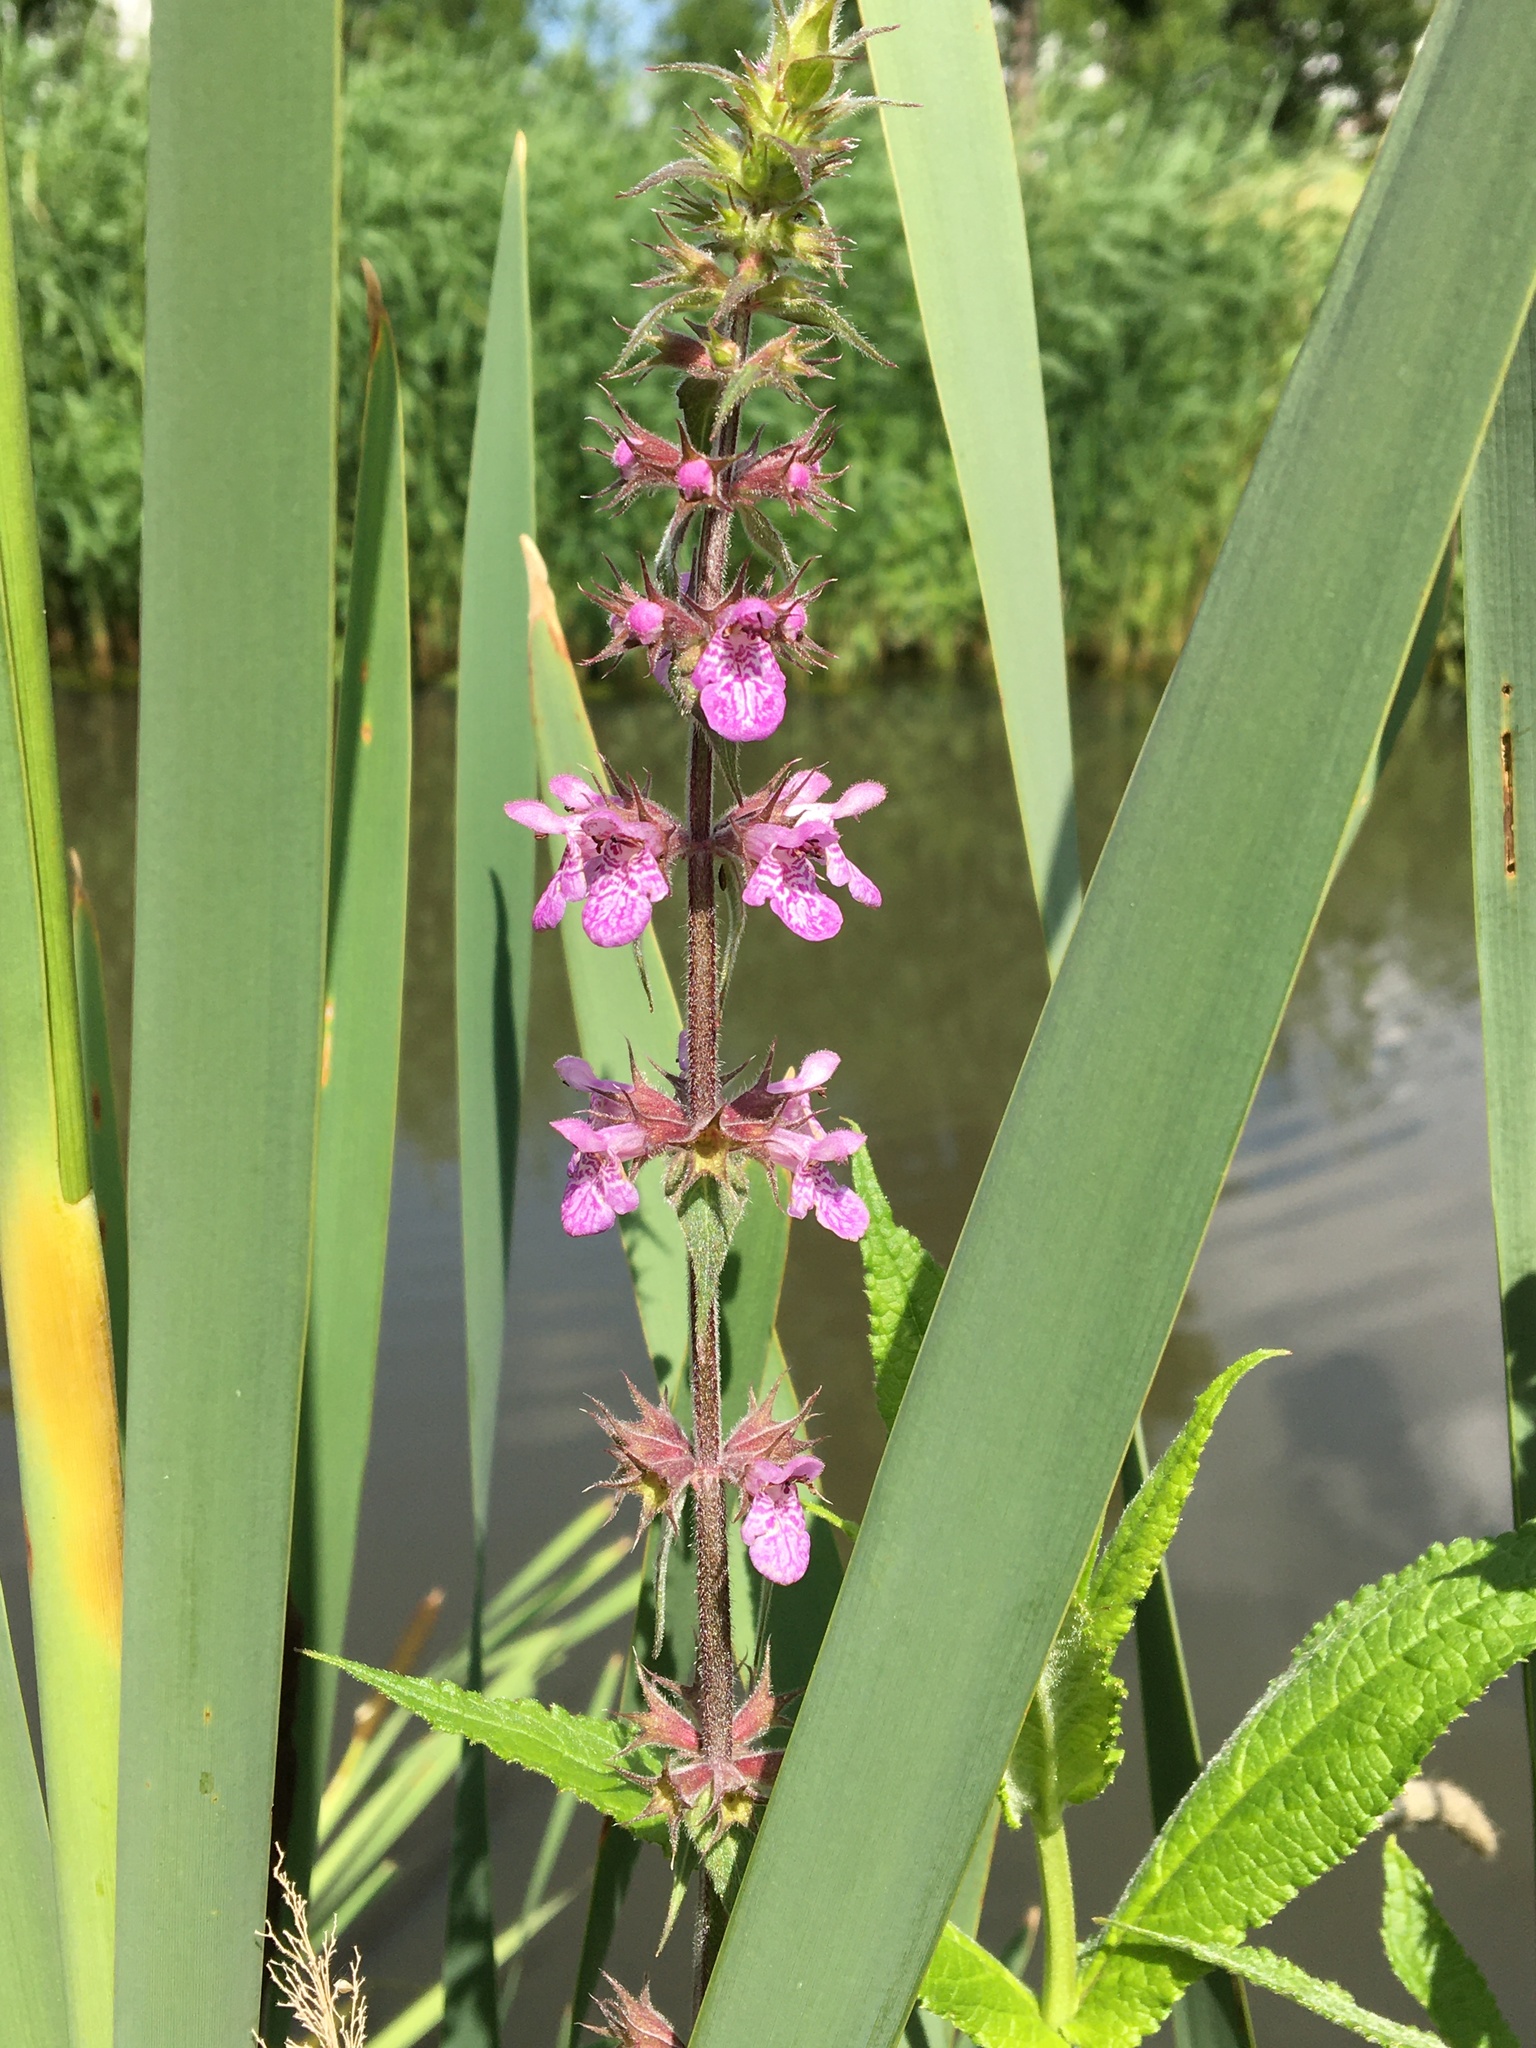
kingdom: Plantae
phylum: Tracheophyta
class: Magnoliopsida
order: Lamiales
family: Lamiaceae
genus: Stachys
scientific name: Stachys palustris
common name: Marsh woundwort
